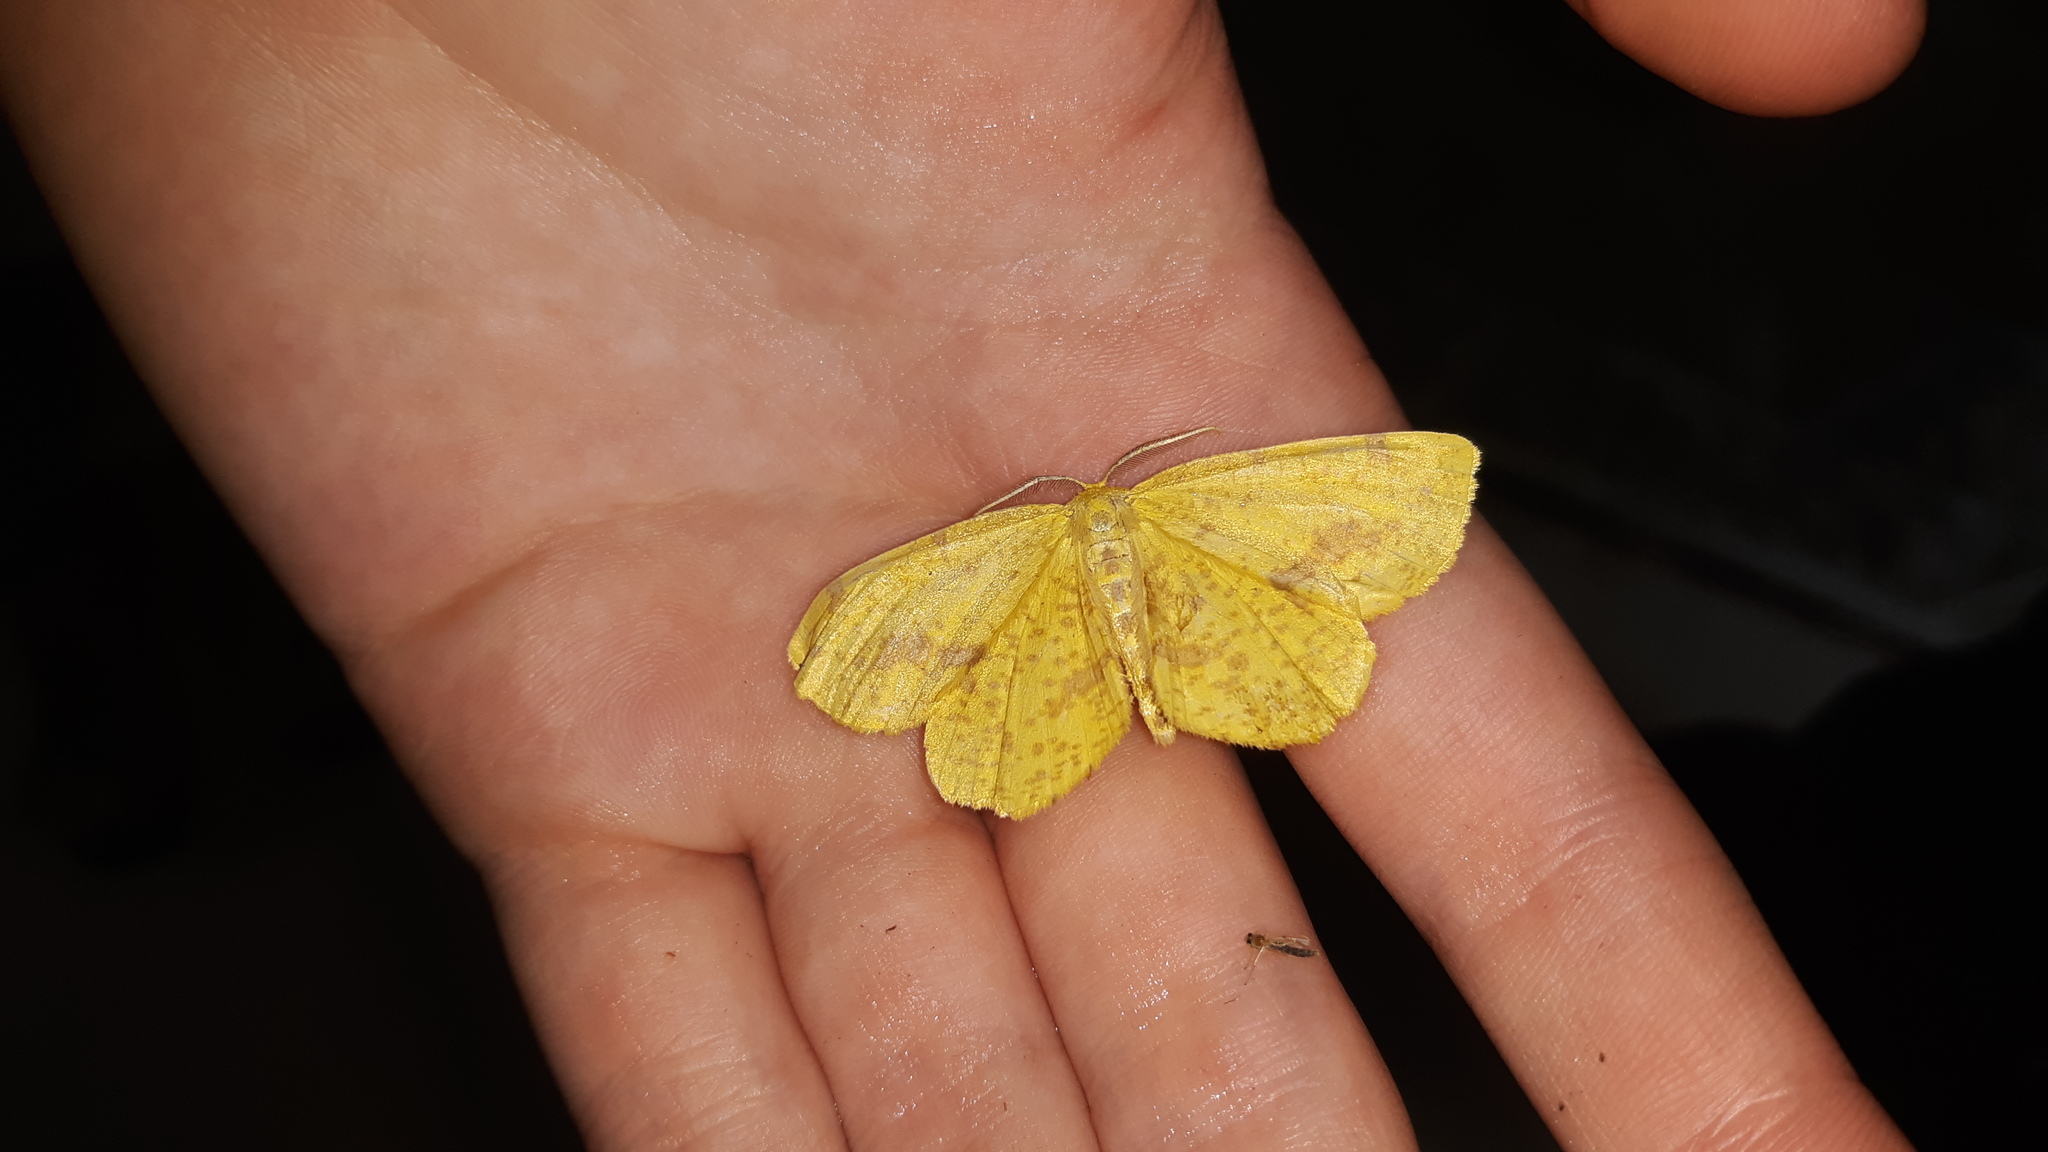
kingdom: Animalia
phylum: Arthropoda
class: Insecta
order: Lepidoptera
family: Geometridae
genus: Xanthotype
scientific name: Xanthotype
